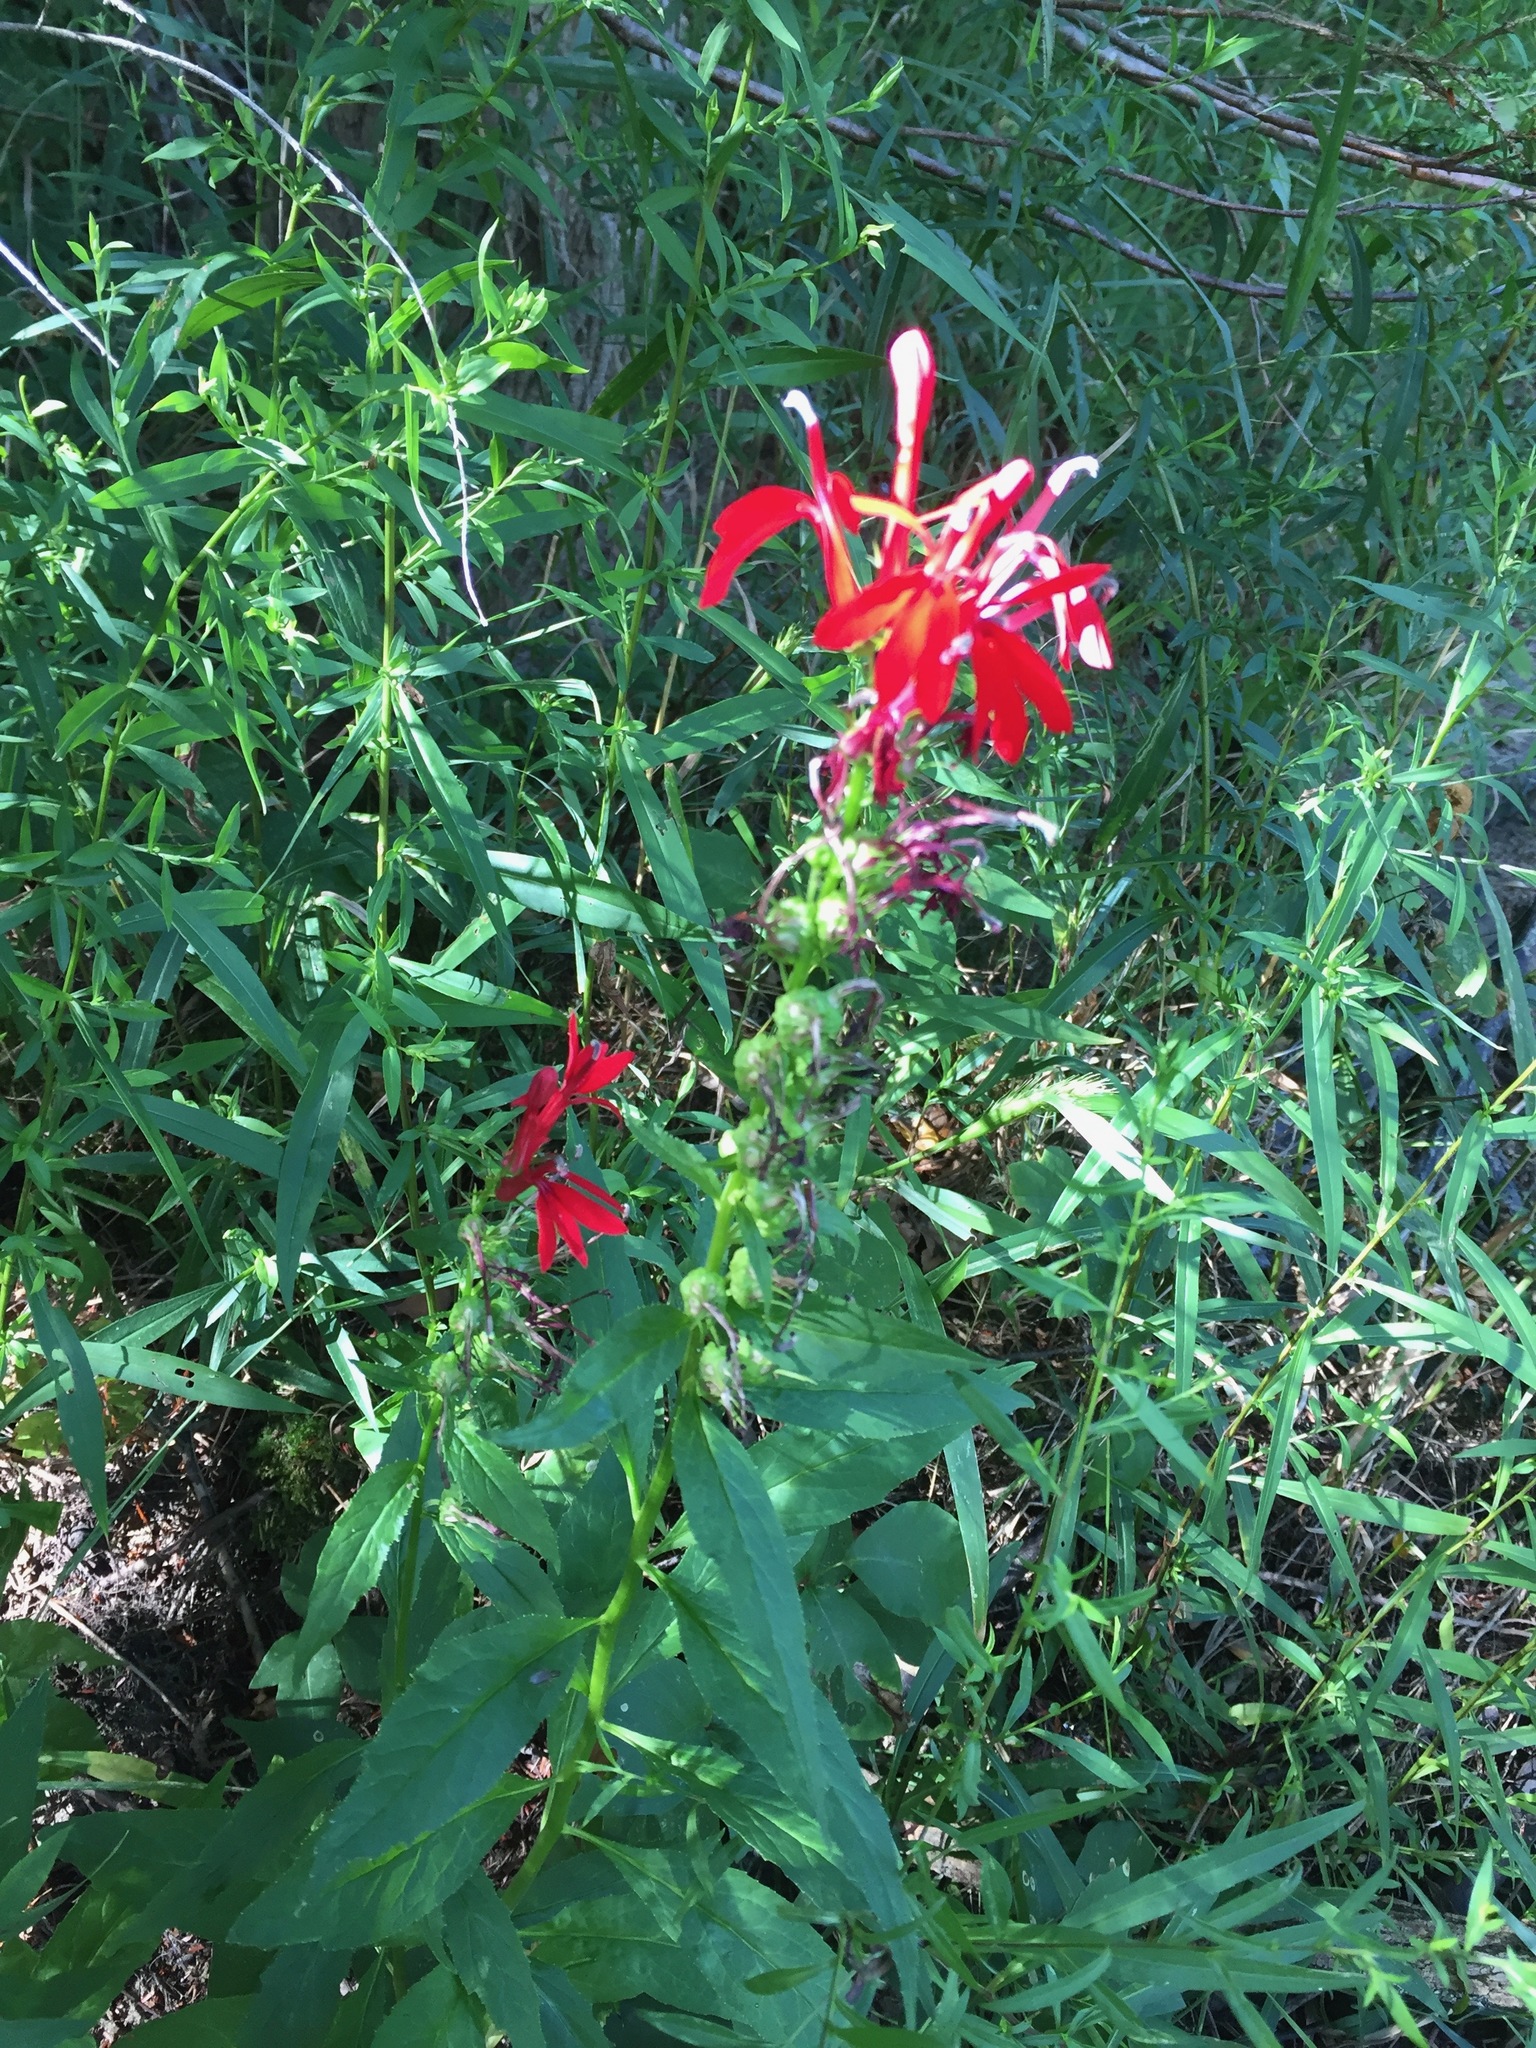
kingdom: Plantae
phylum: Tracheophyta
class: Magnoliopsida
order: Asterales
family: Campanulaceae
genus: Lobelia
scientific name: Lobelia cardinalis
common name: Cardinal flower
